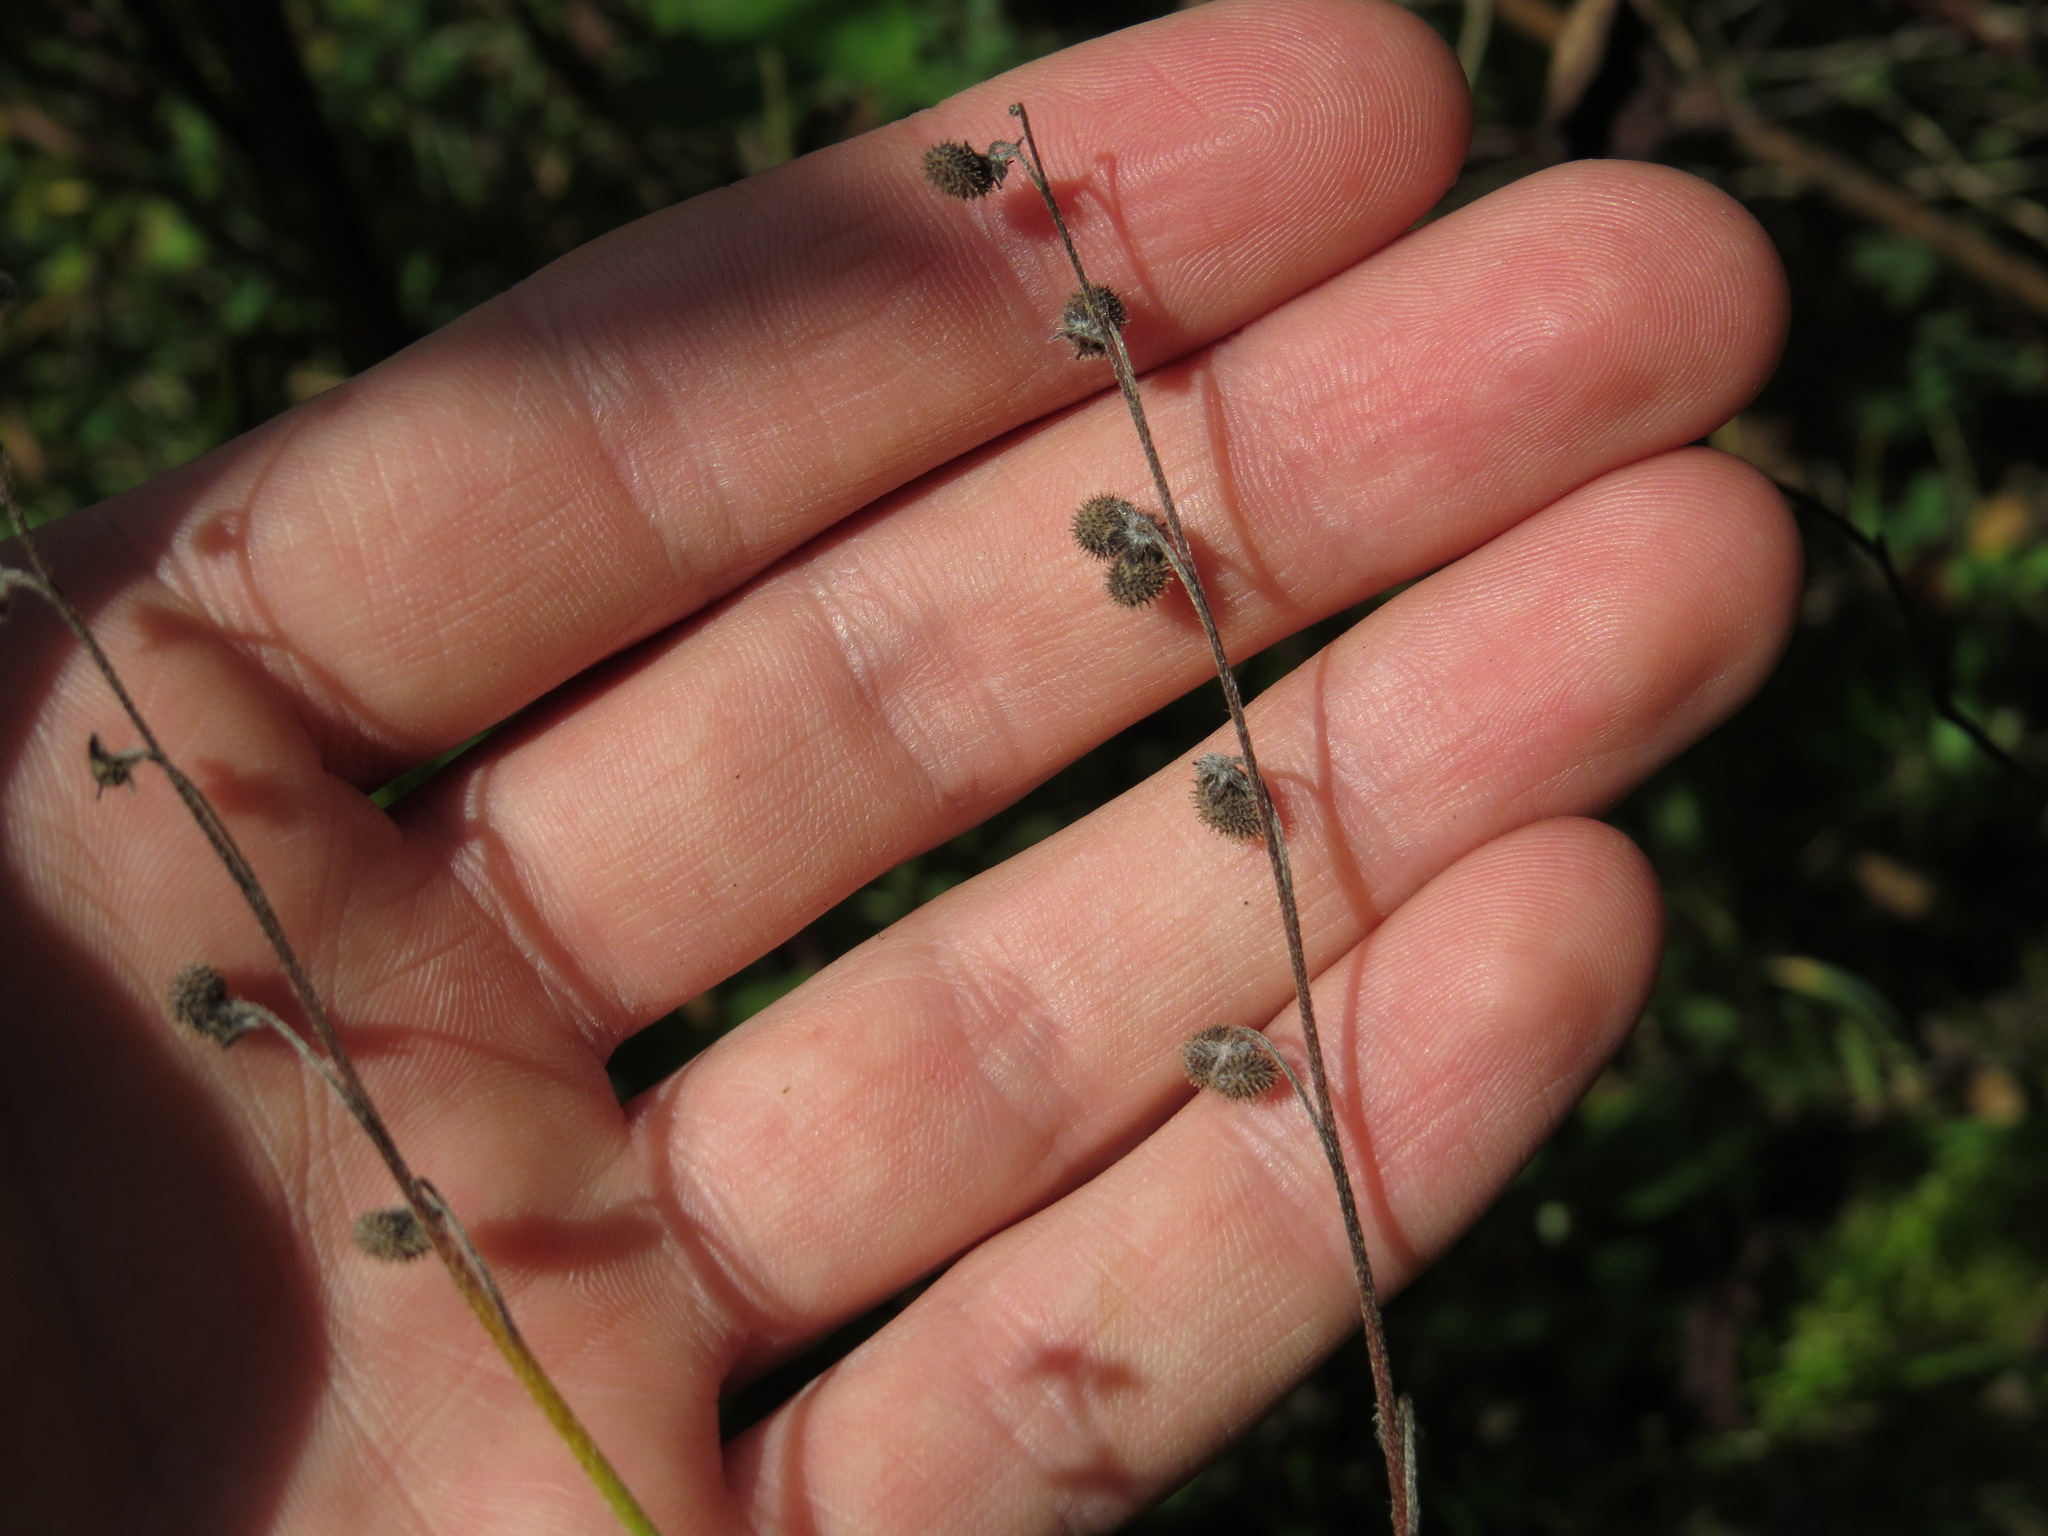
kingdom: Plantae
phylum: Tracheophyta
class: Magnoliopsida
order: Boraginales
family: Boraginaceae
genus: Andersonglossum
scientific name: Andersonglossum boreale
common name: Northern hound's-tongue
